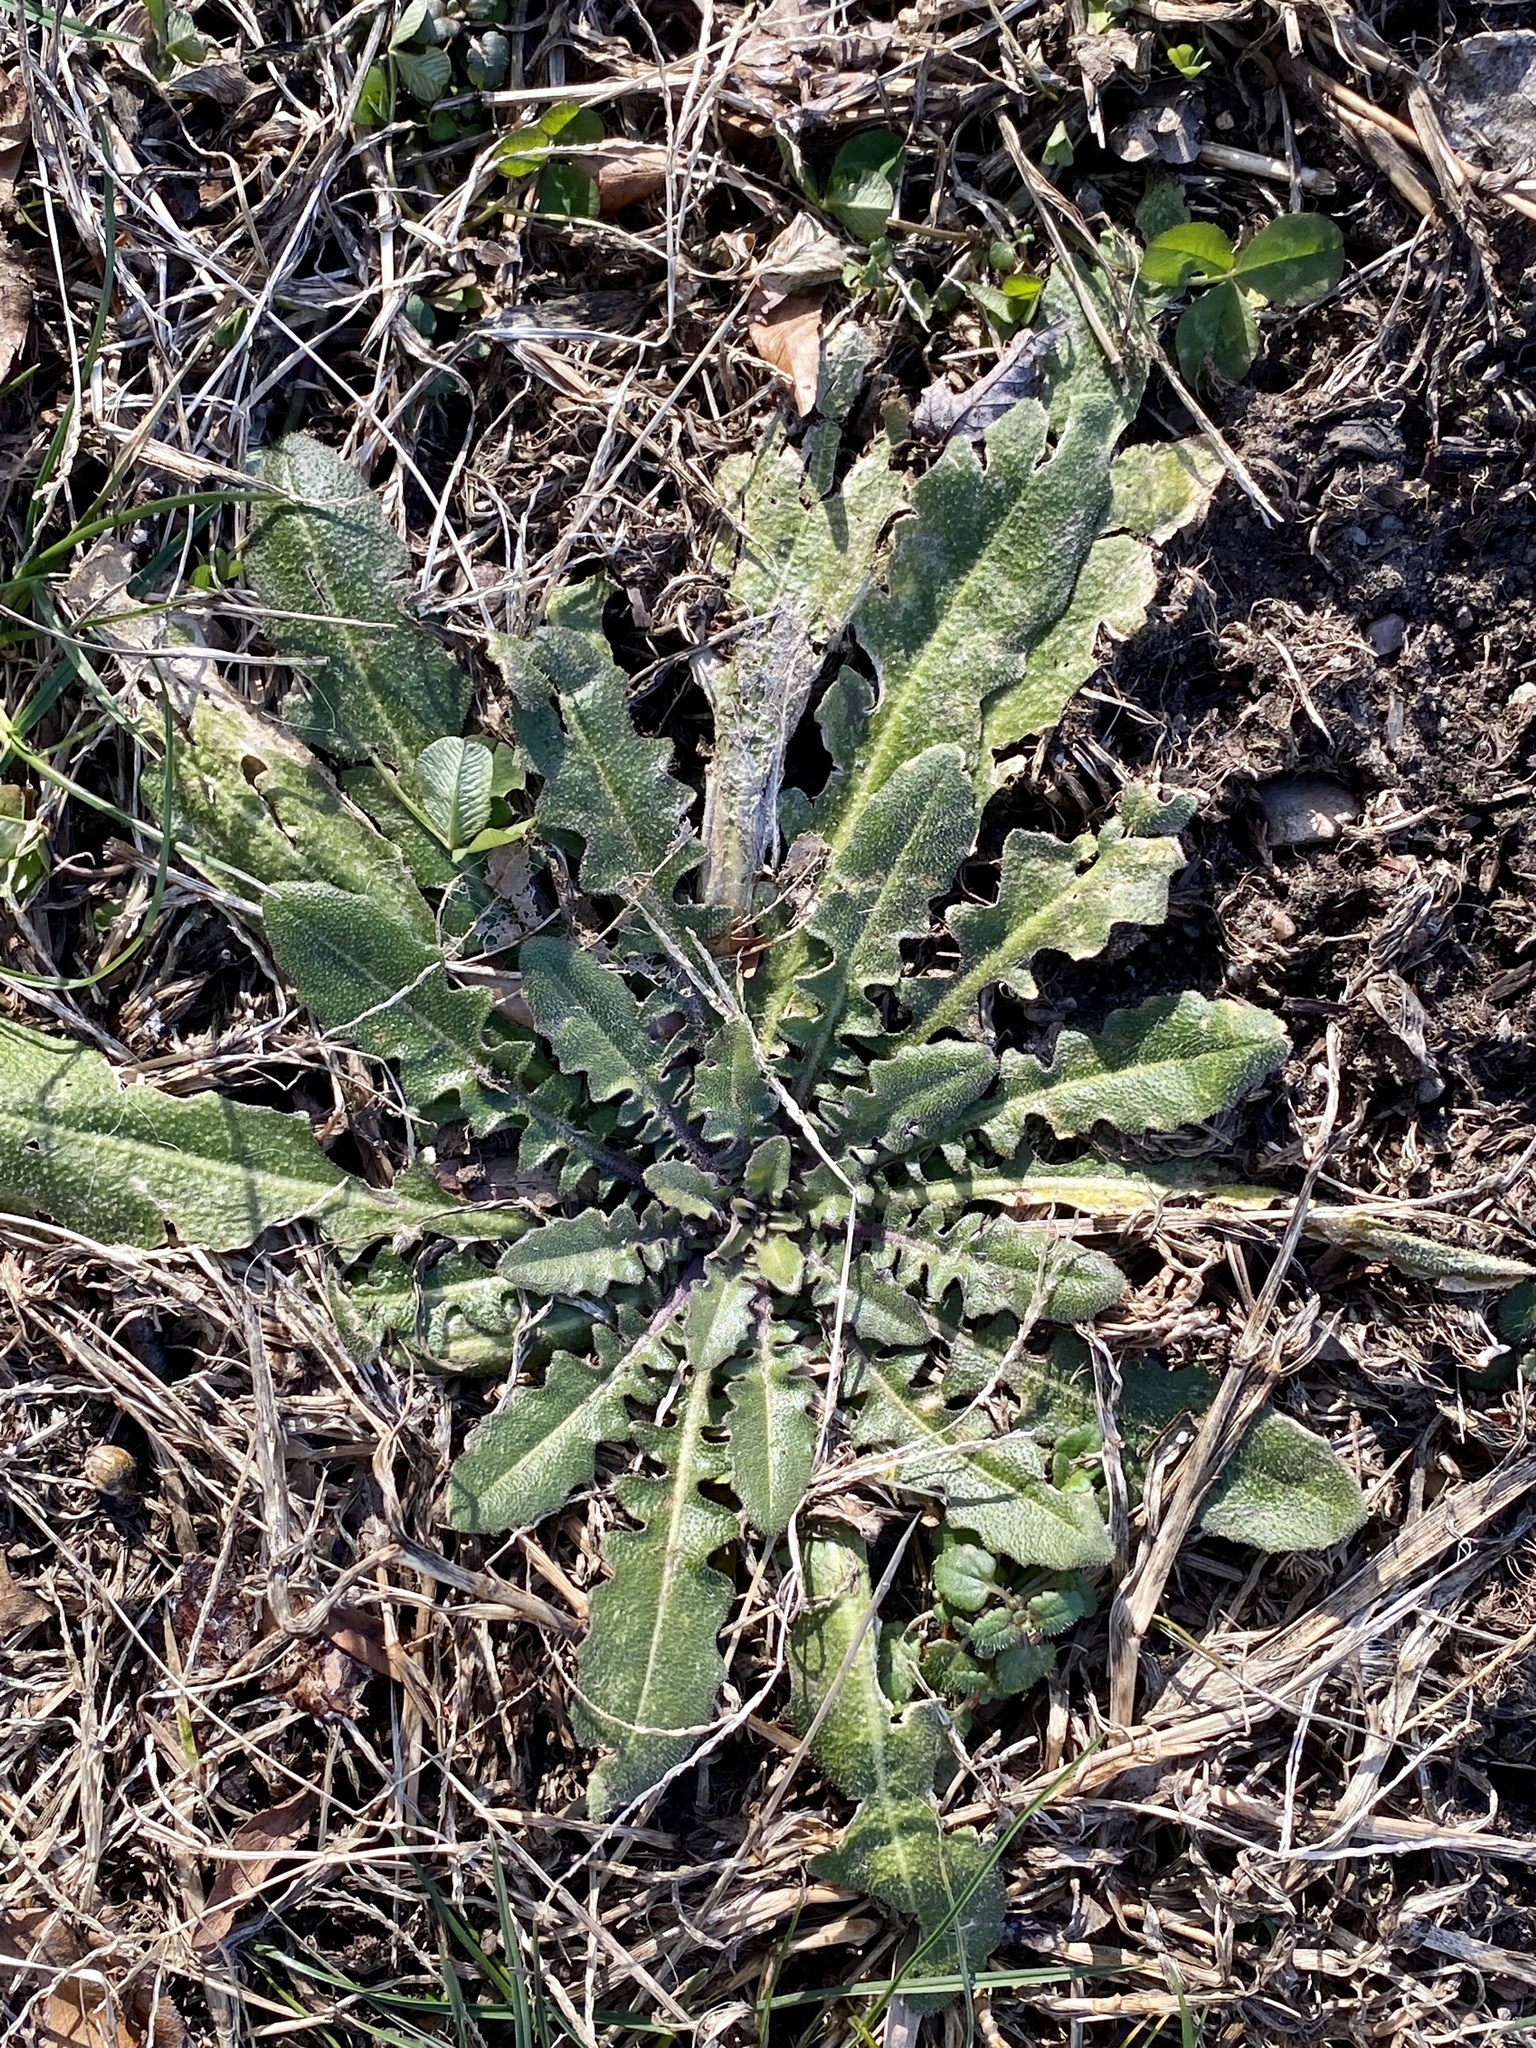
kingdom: Plantae
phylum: Tracheophyta
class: Magnoliopsida
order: Asterales
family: Asteraceae
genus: Hypochaeris
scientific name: Hypochaeris radicata
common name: Flatweed
